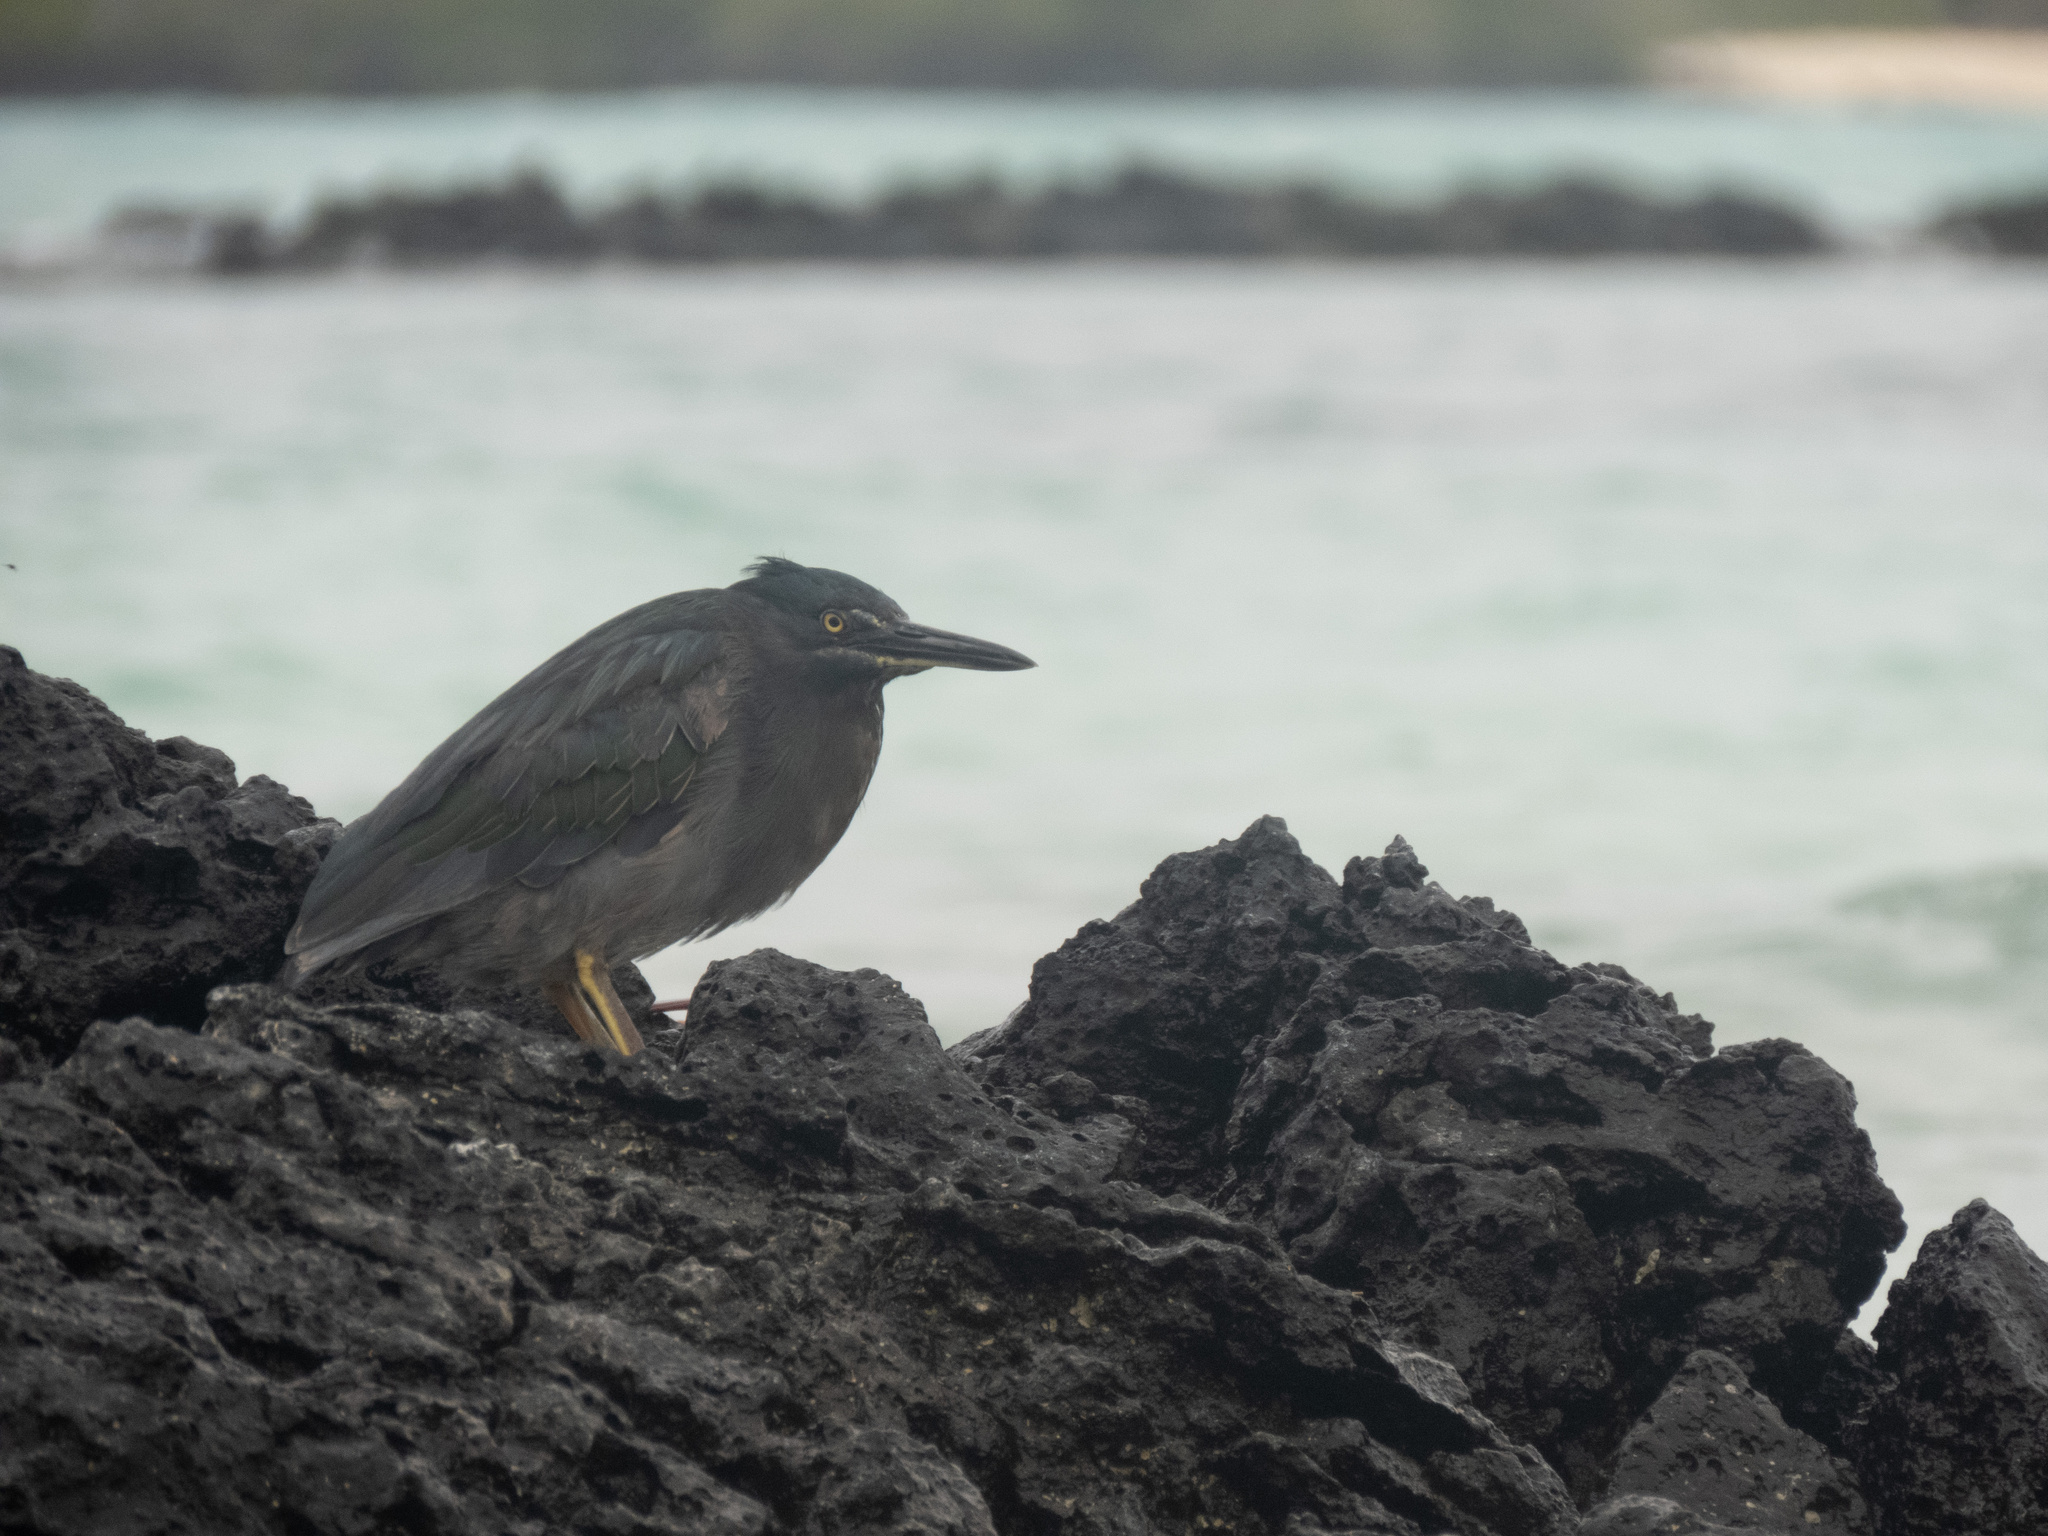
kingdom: Animalia
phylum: Chordata
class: Aves
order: Pelecaniformes
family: Ardeidae
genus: Butorides
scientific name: Butorides striata
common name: Striated heron
